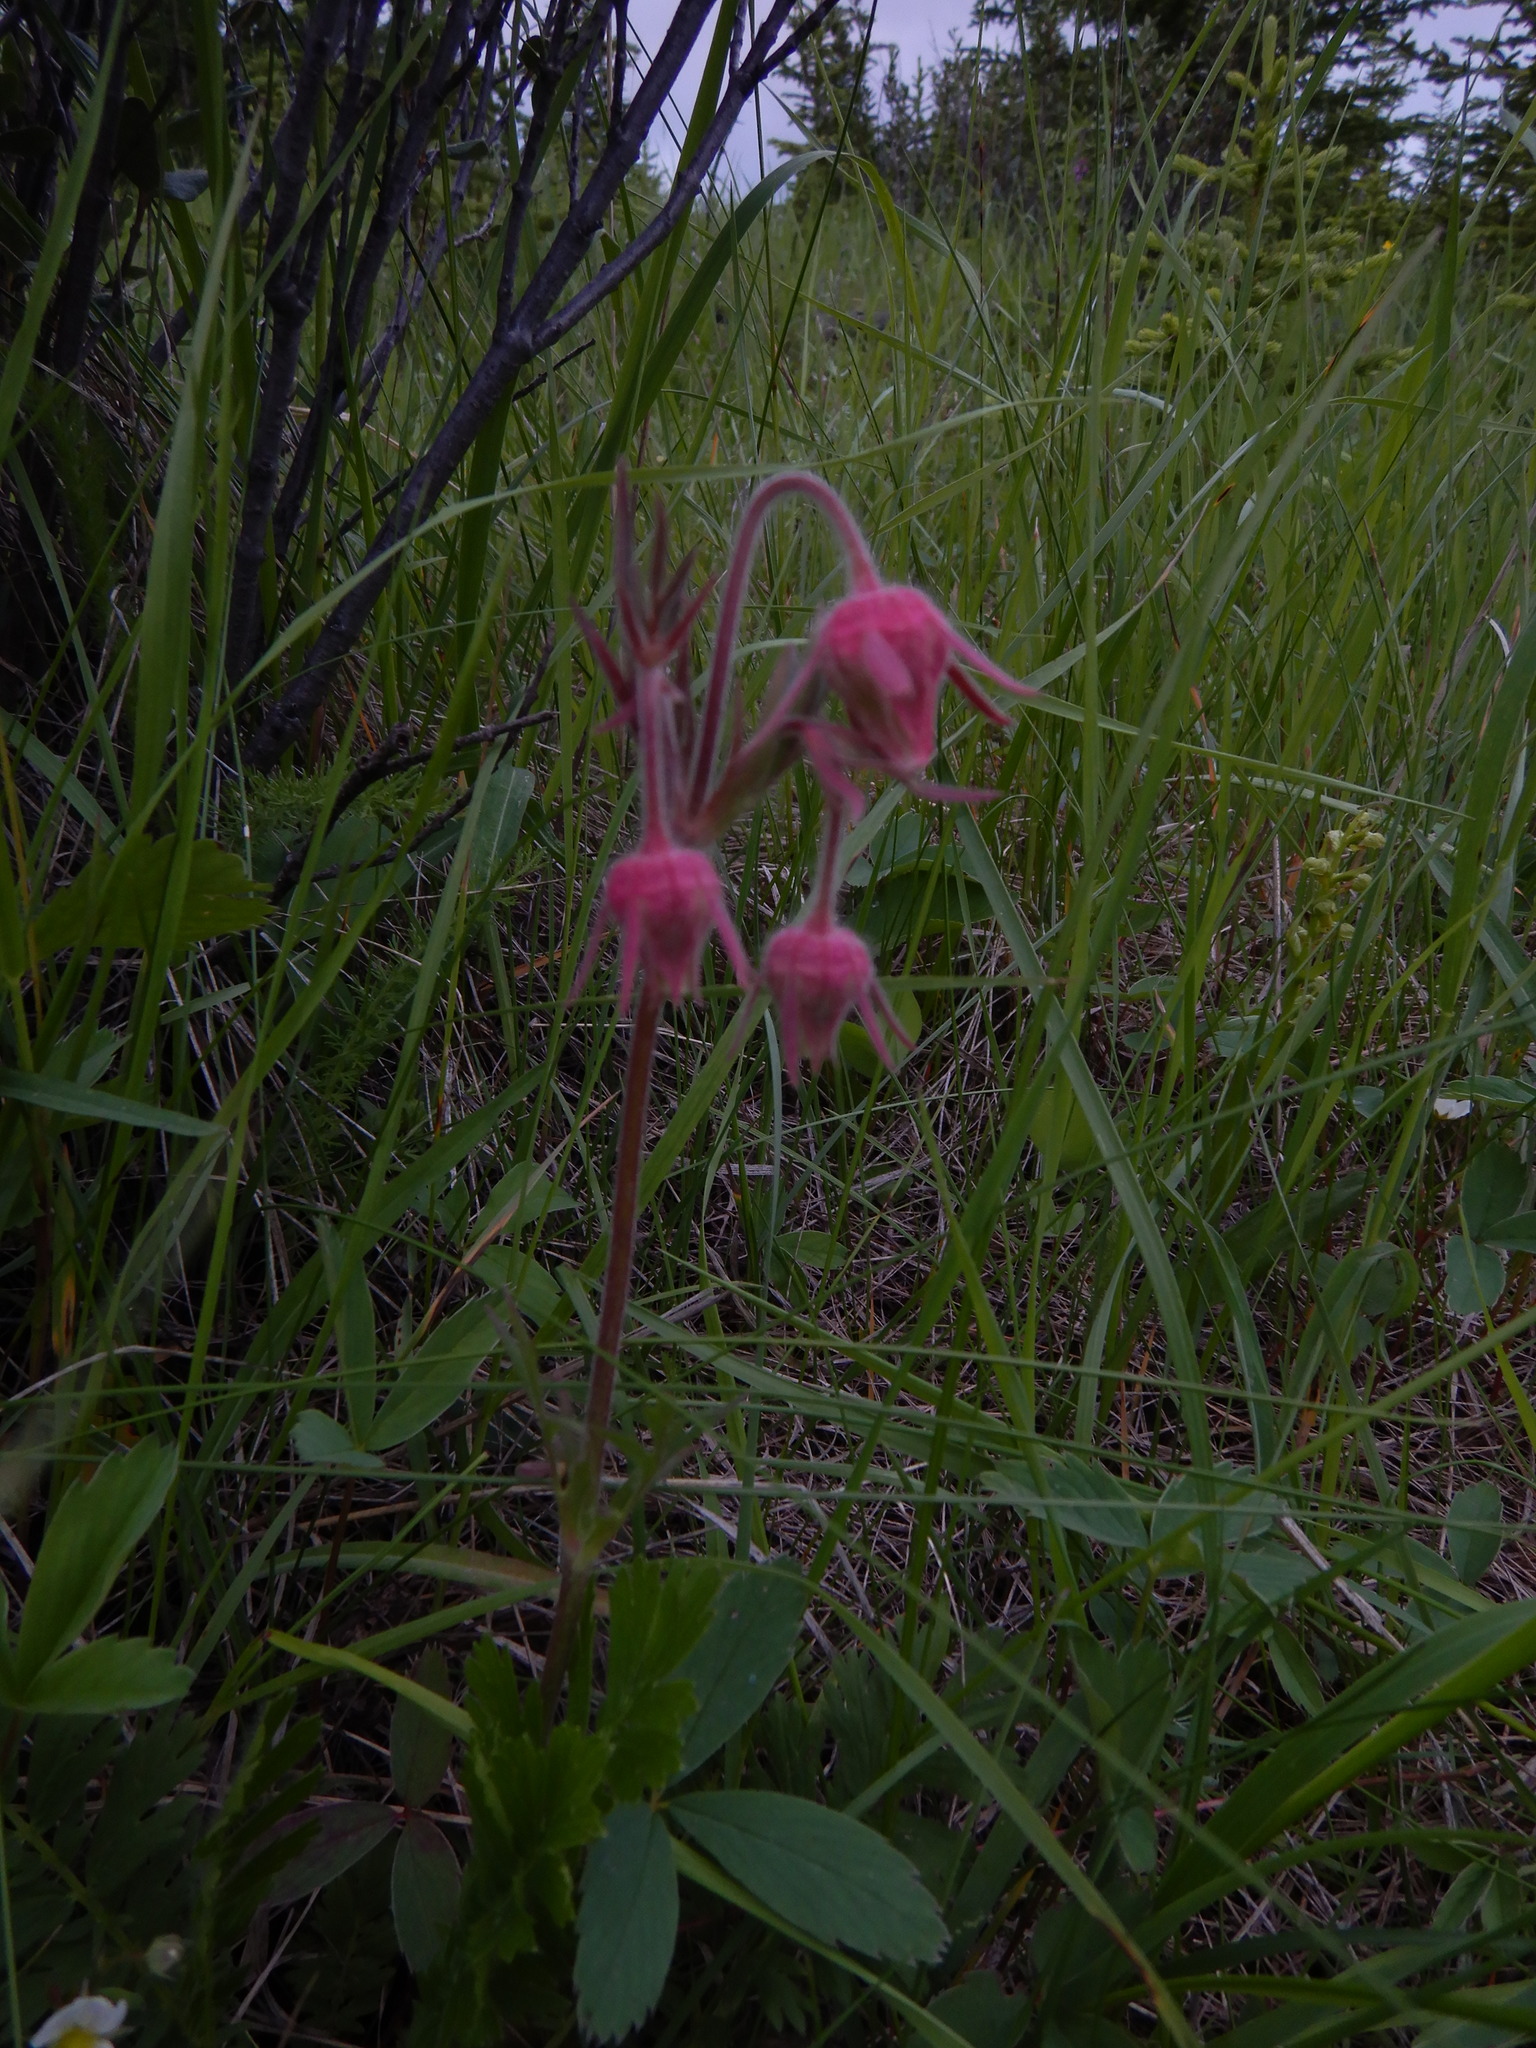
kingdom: Plantae
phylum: Tracheophyta
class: Magnoliopsida
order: Rosales
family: Rosaceae
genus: Geum
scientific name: Geum triflorum
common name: Old man's whiskers
